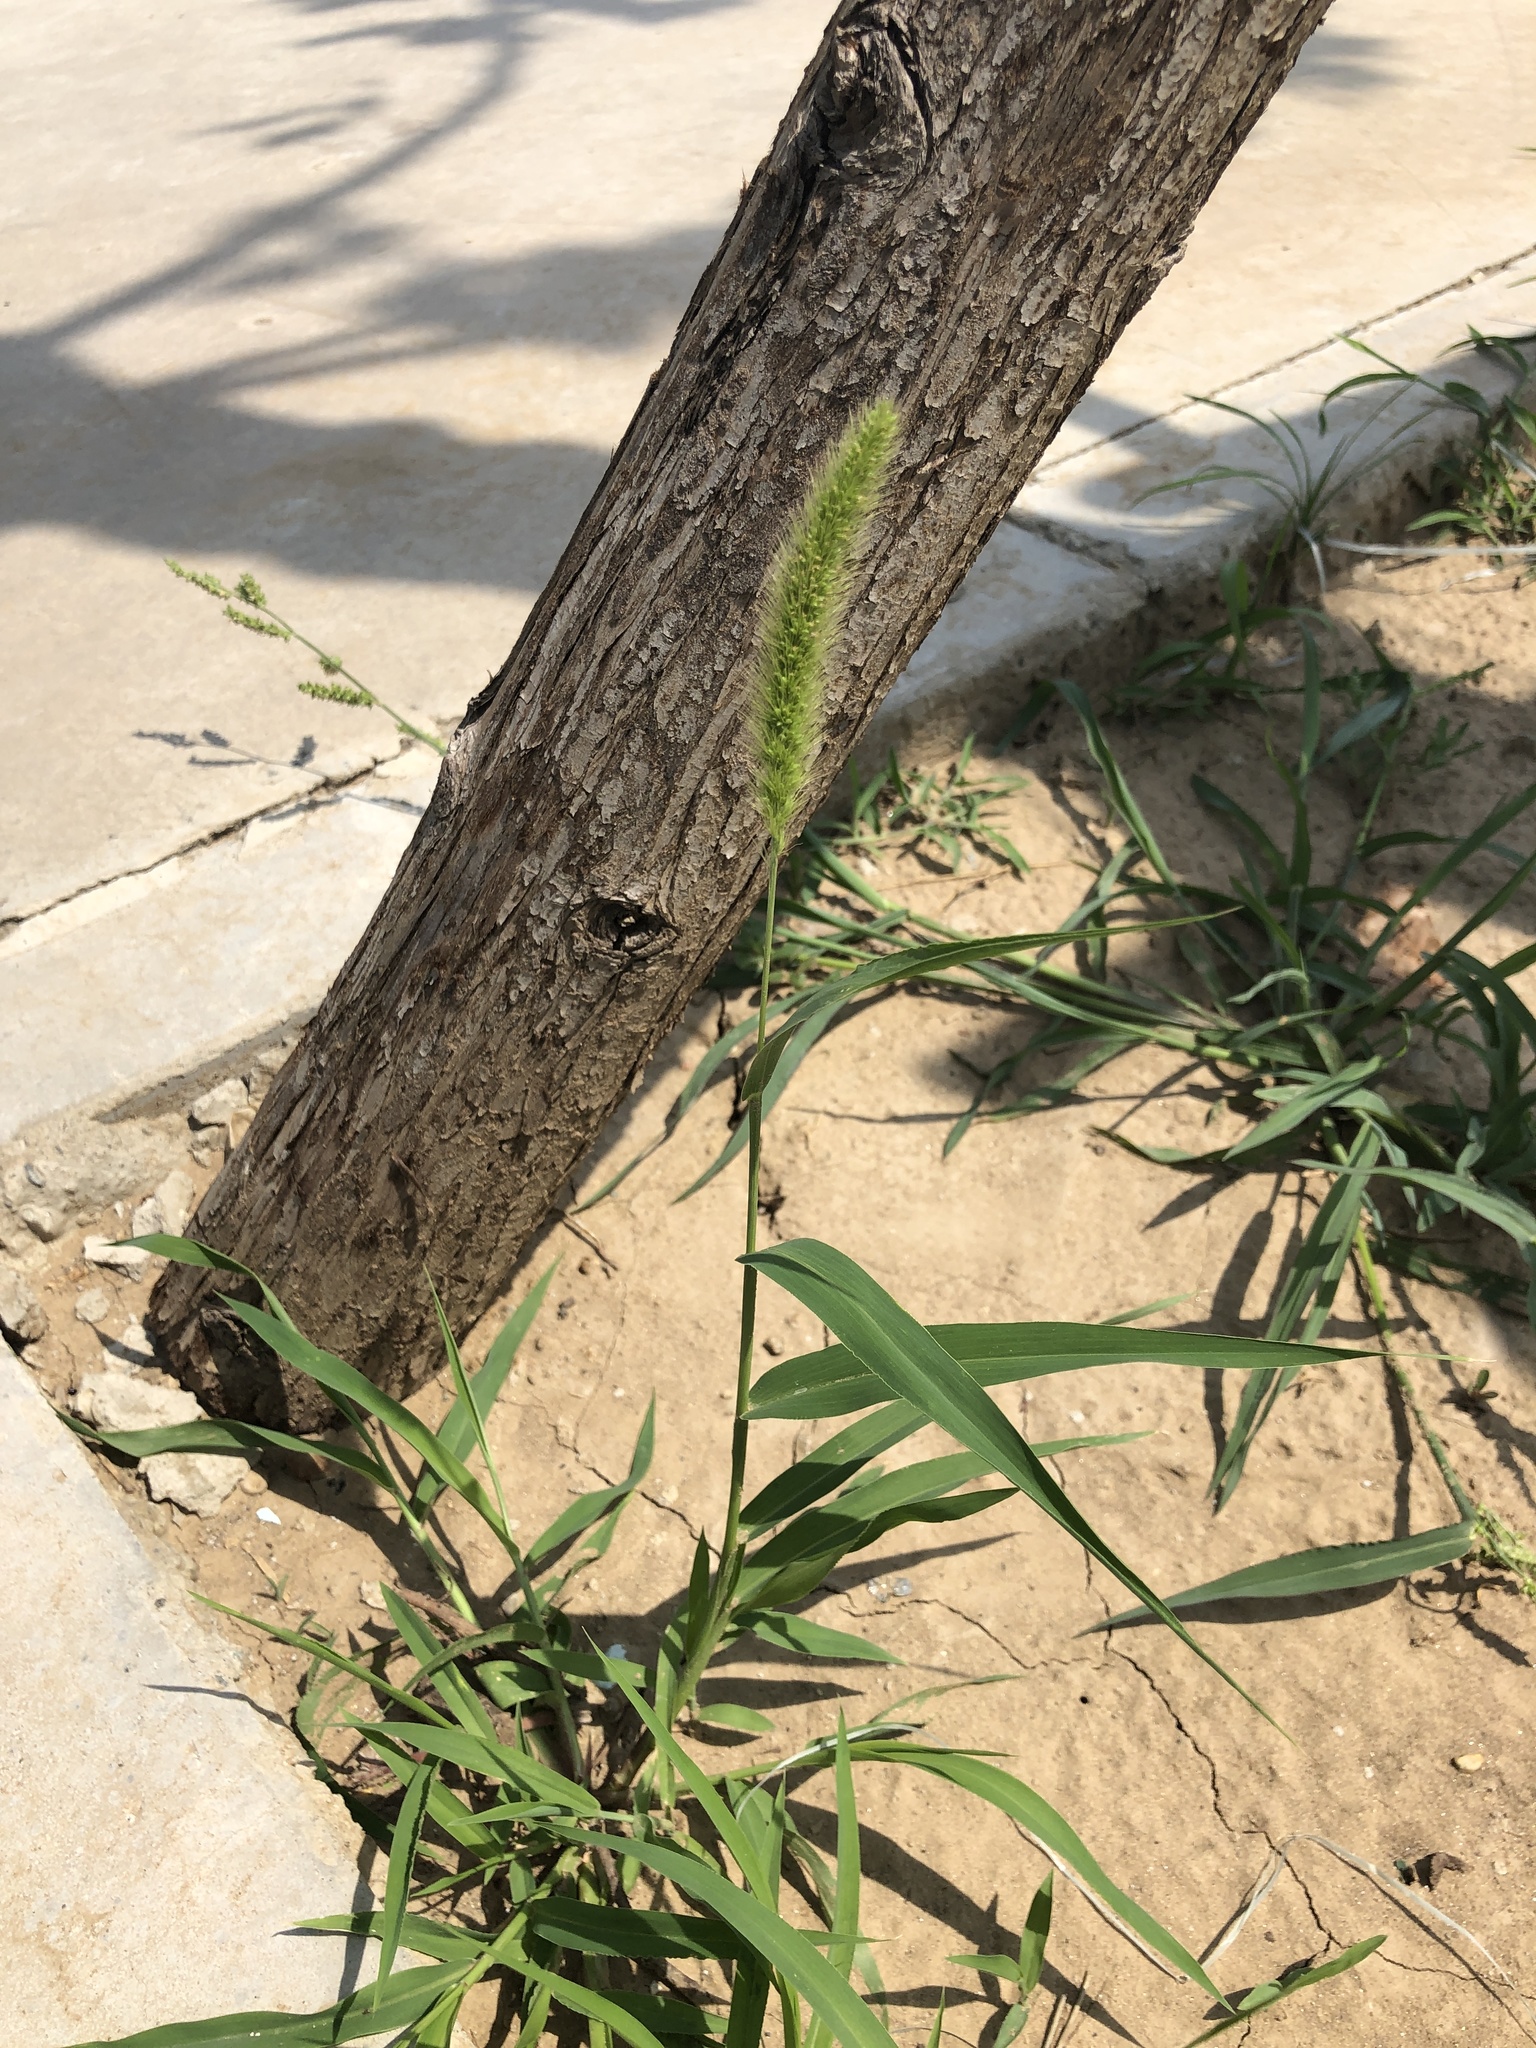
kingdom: Plantae
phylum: Tracheophyta
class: Liliopsida
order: Poales
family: Poaceae
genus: Setaria
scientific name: Setaria viridis
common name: Green bristlegrass
